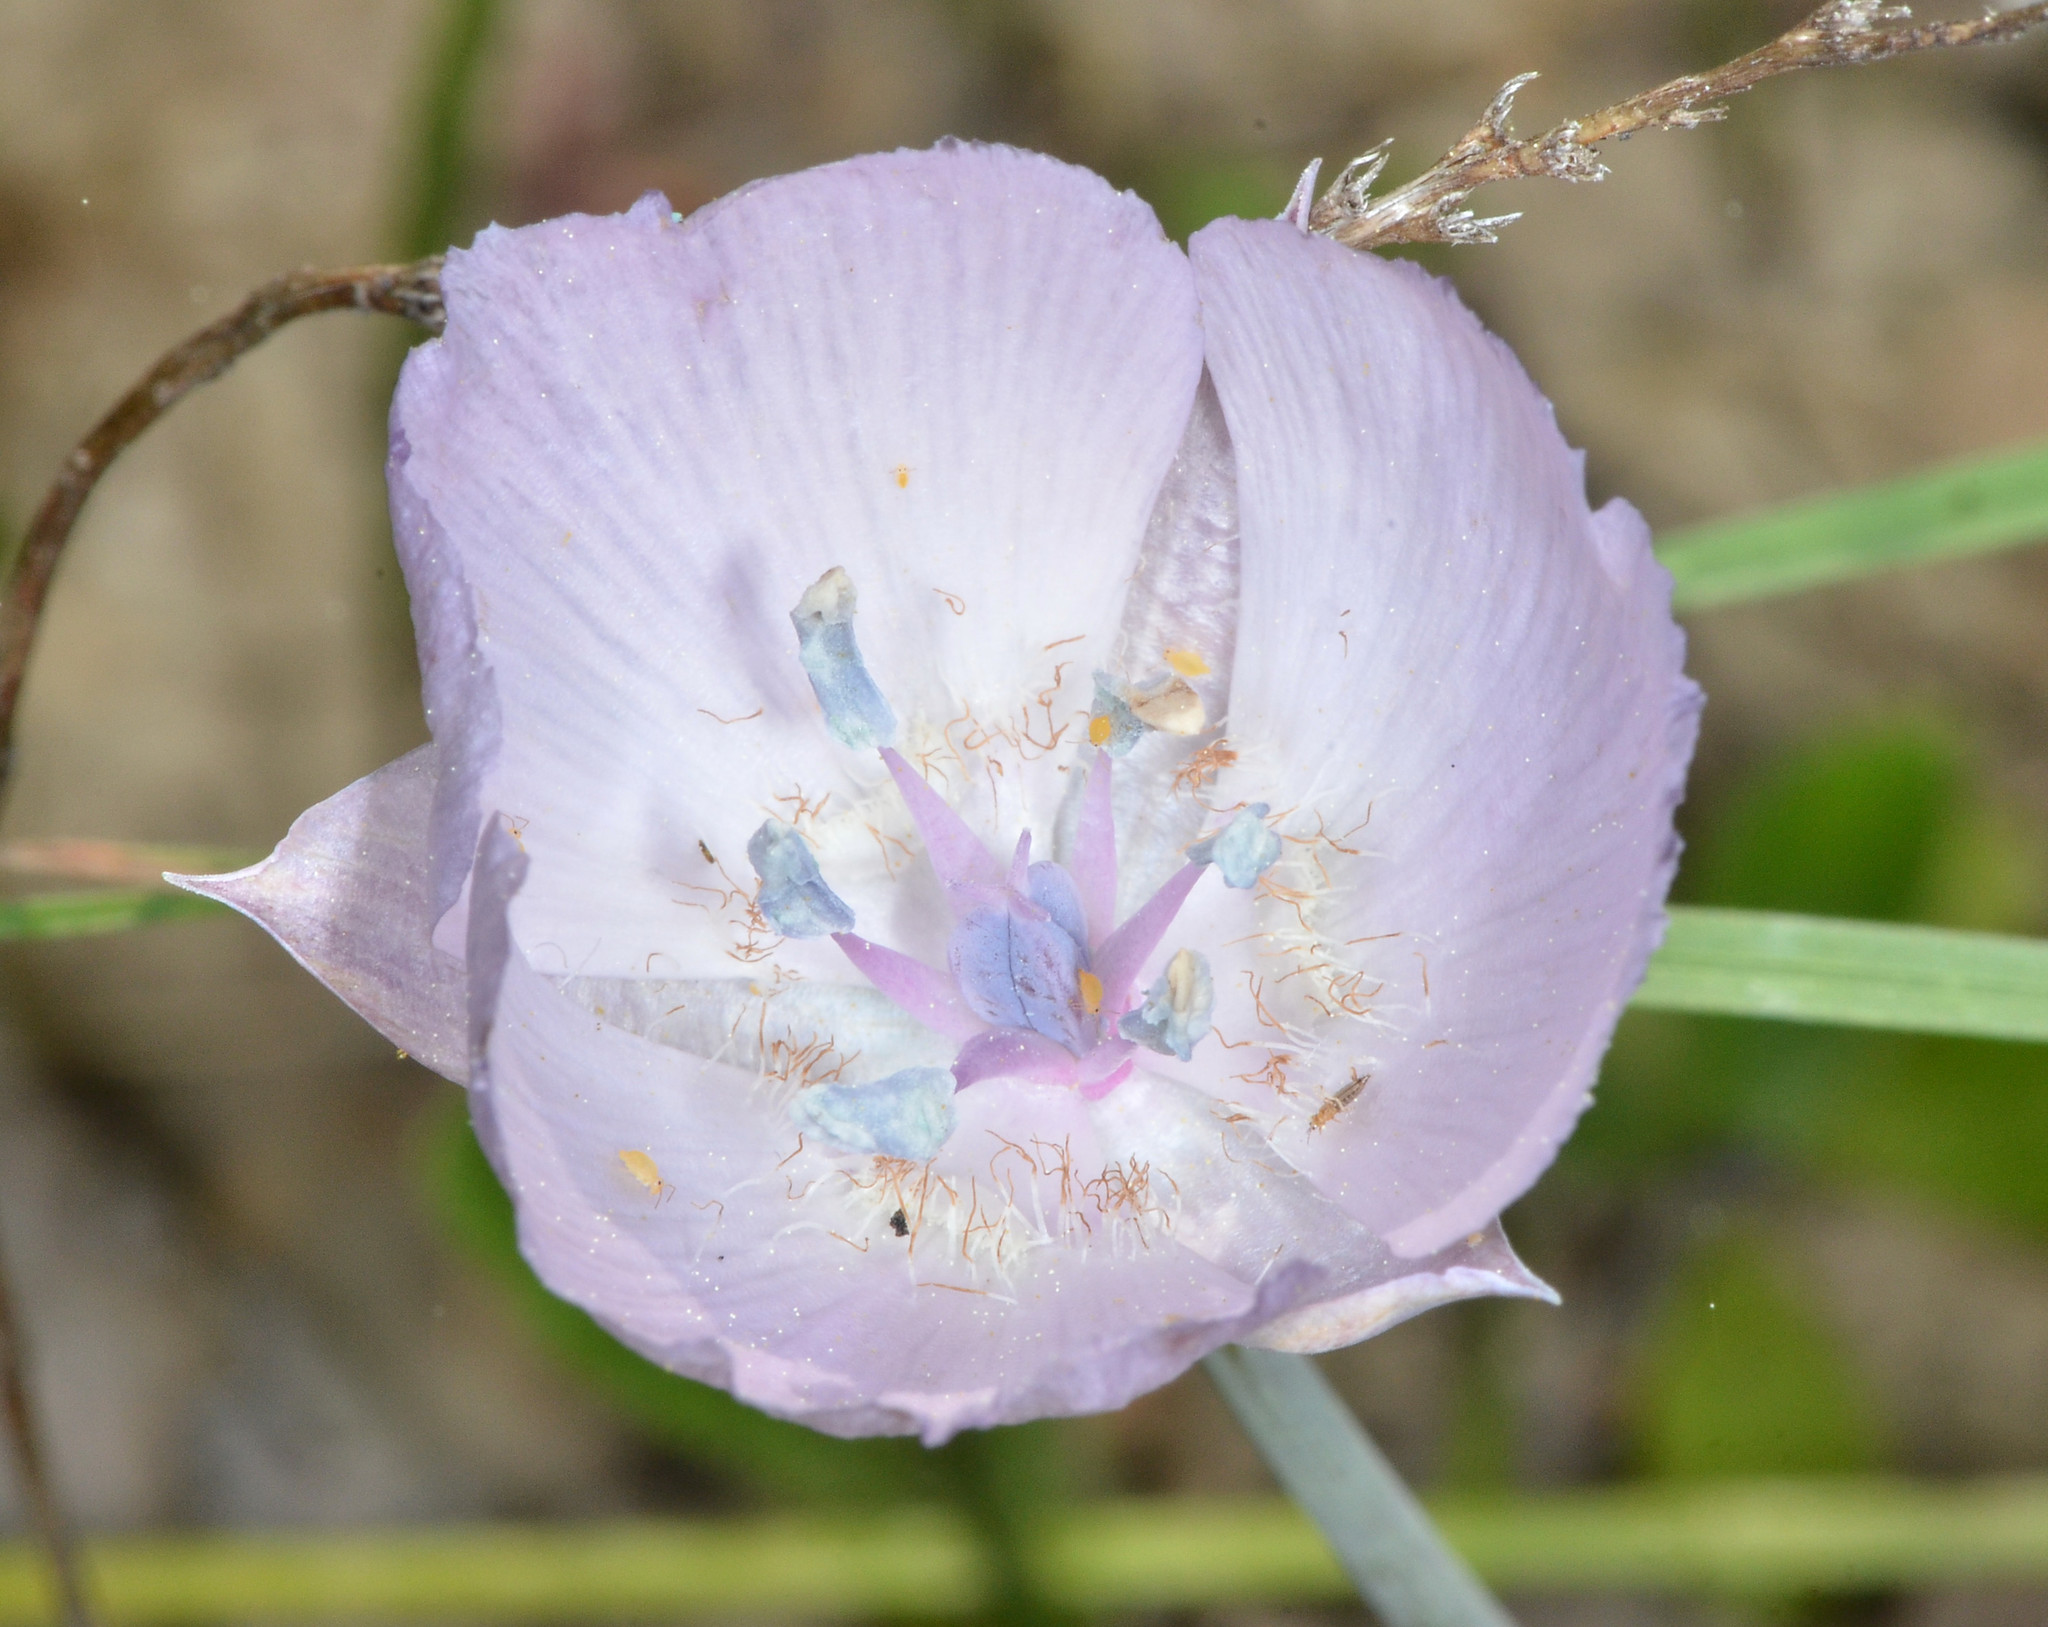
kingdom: Plantae
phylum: Tracheophyta
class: Liliopsida
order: Liliales
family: Liliaceae
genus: Calochortus
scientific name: Calochortus uniflorus
